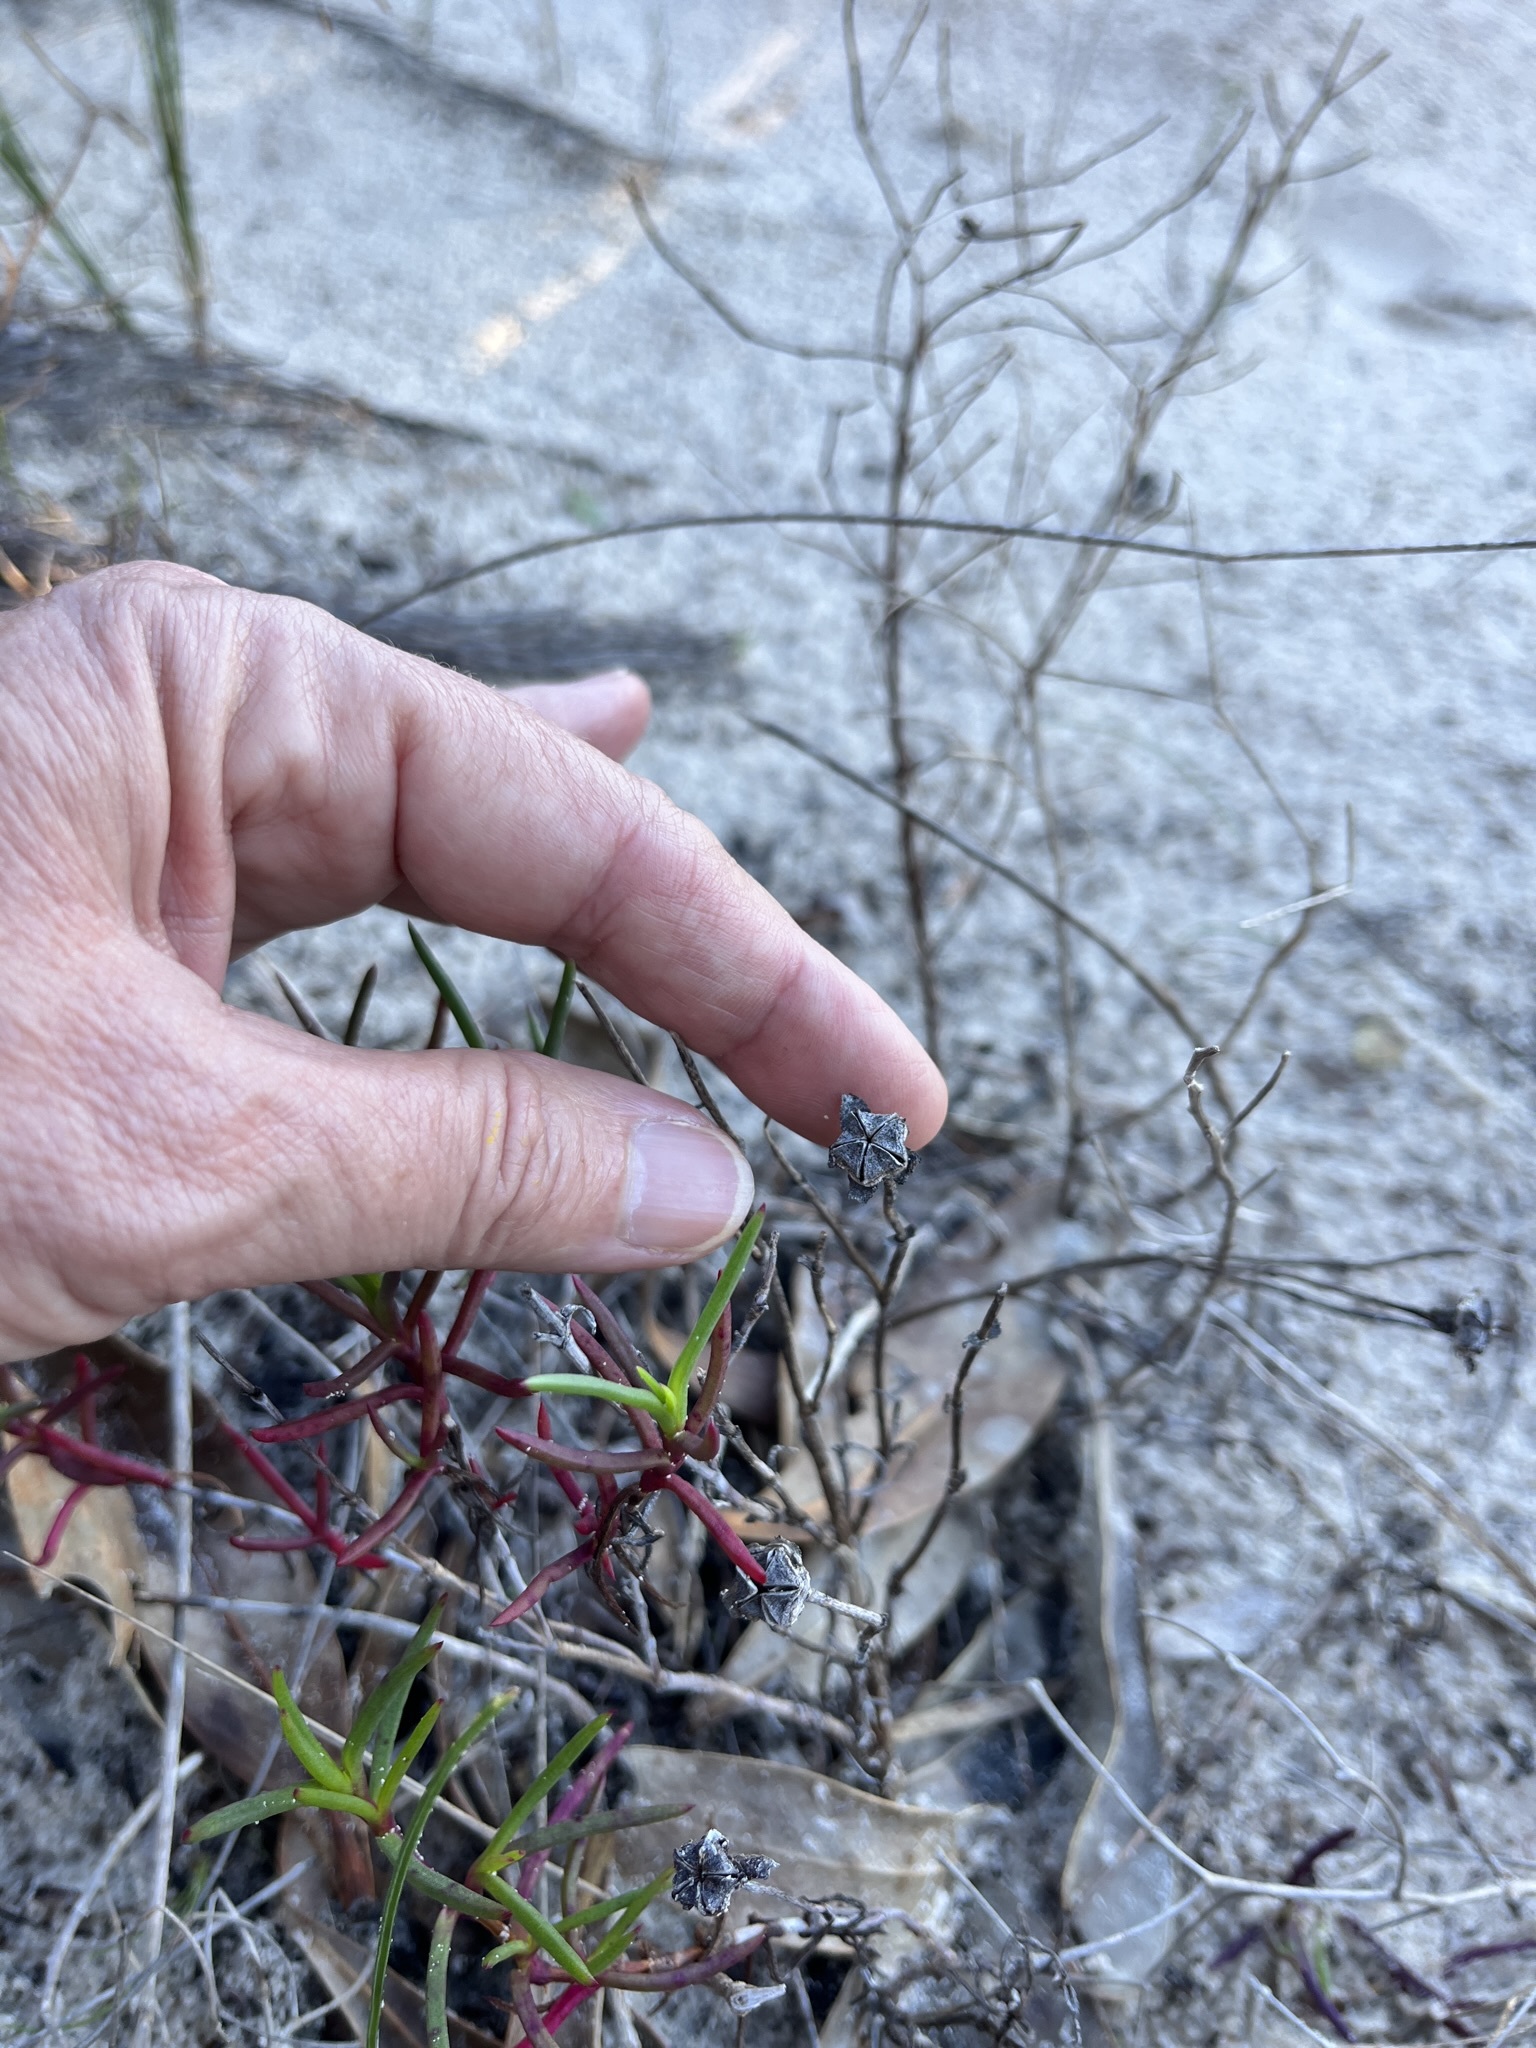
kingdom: Plantae
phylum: Tracheophyta
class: Magnoliopsida
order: Caryophyllales
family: Aizoaceae
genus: Lampranthus
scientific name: Lampranthus tenuifolius
